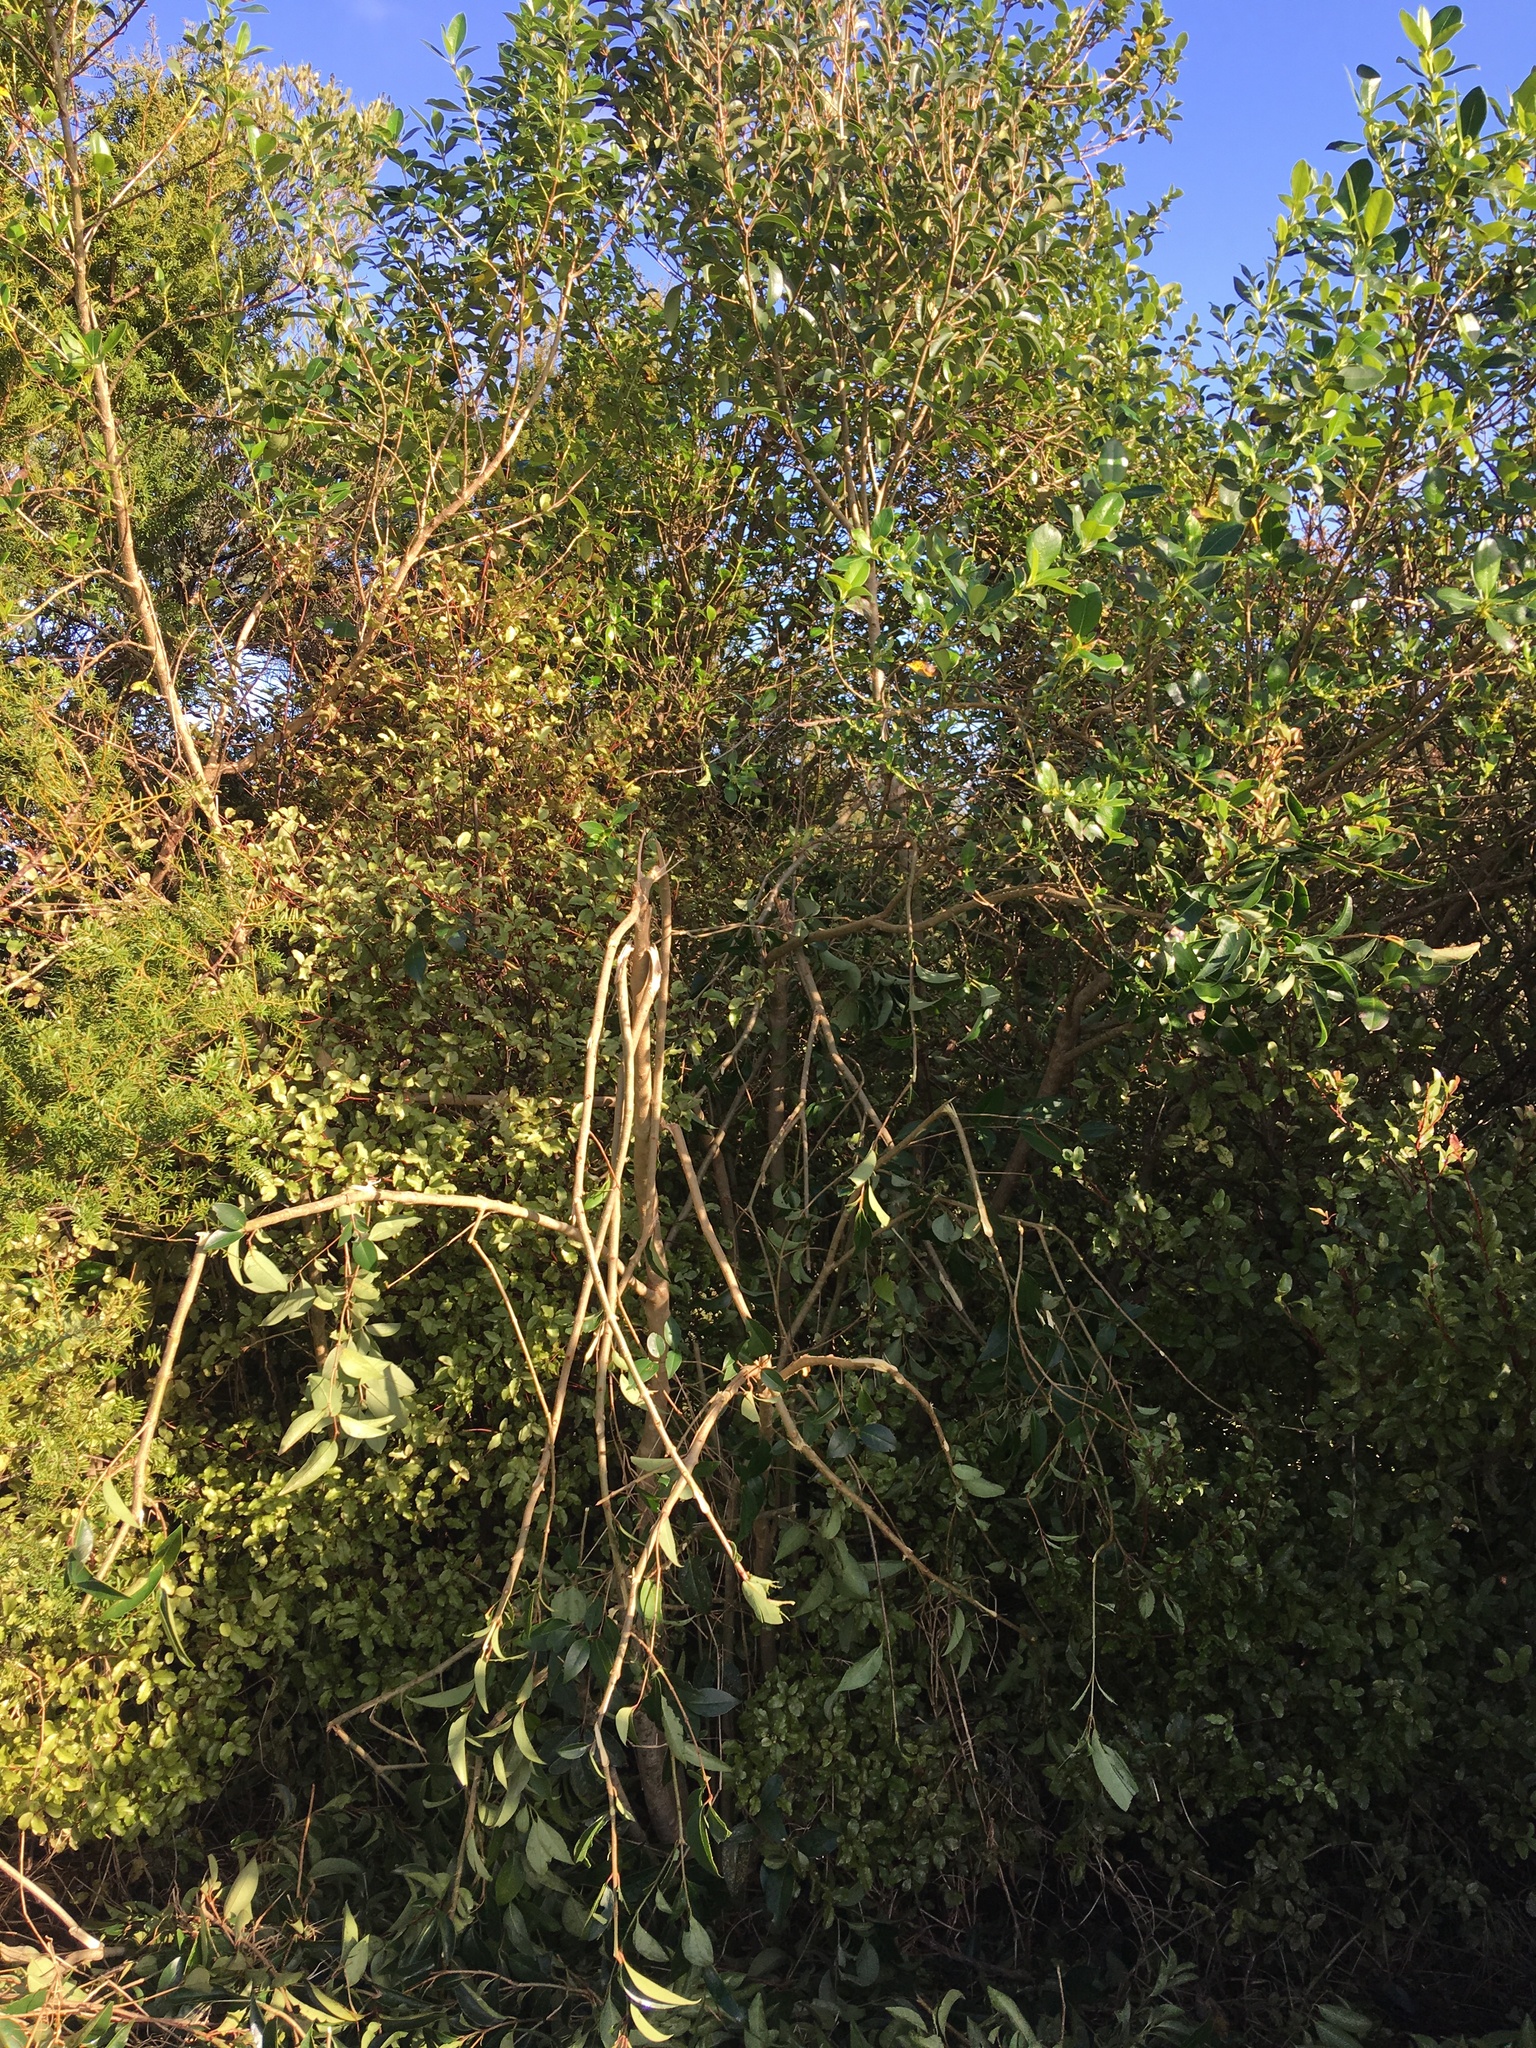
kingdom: Plantae
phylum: Tracheophyta
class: Magnoliopsida
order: Lamiales
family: Oleaceae
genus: Ligustrum
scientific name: Ligustrum lucidum
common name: Glossy privet
